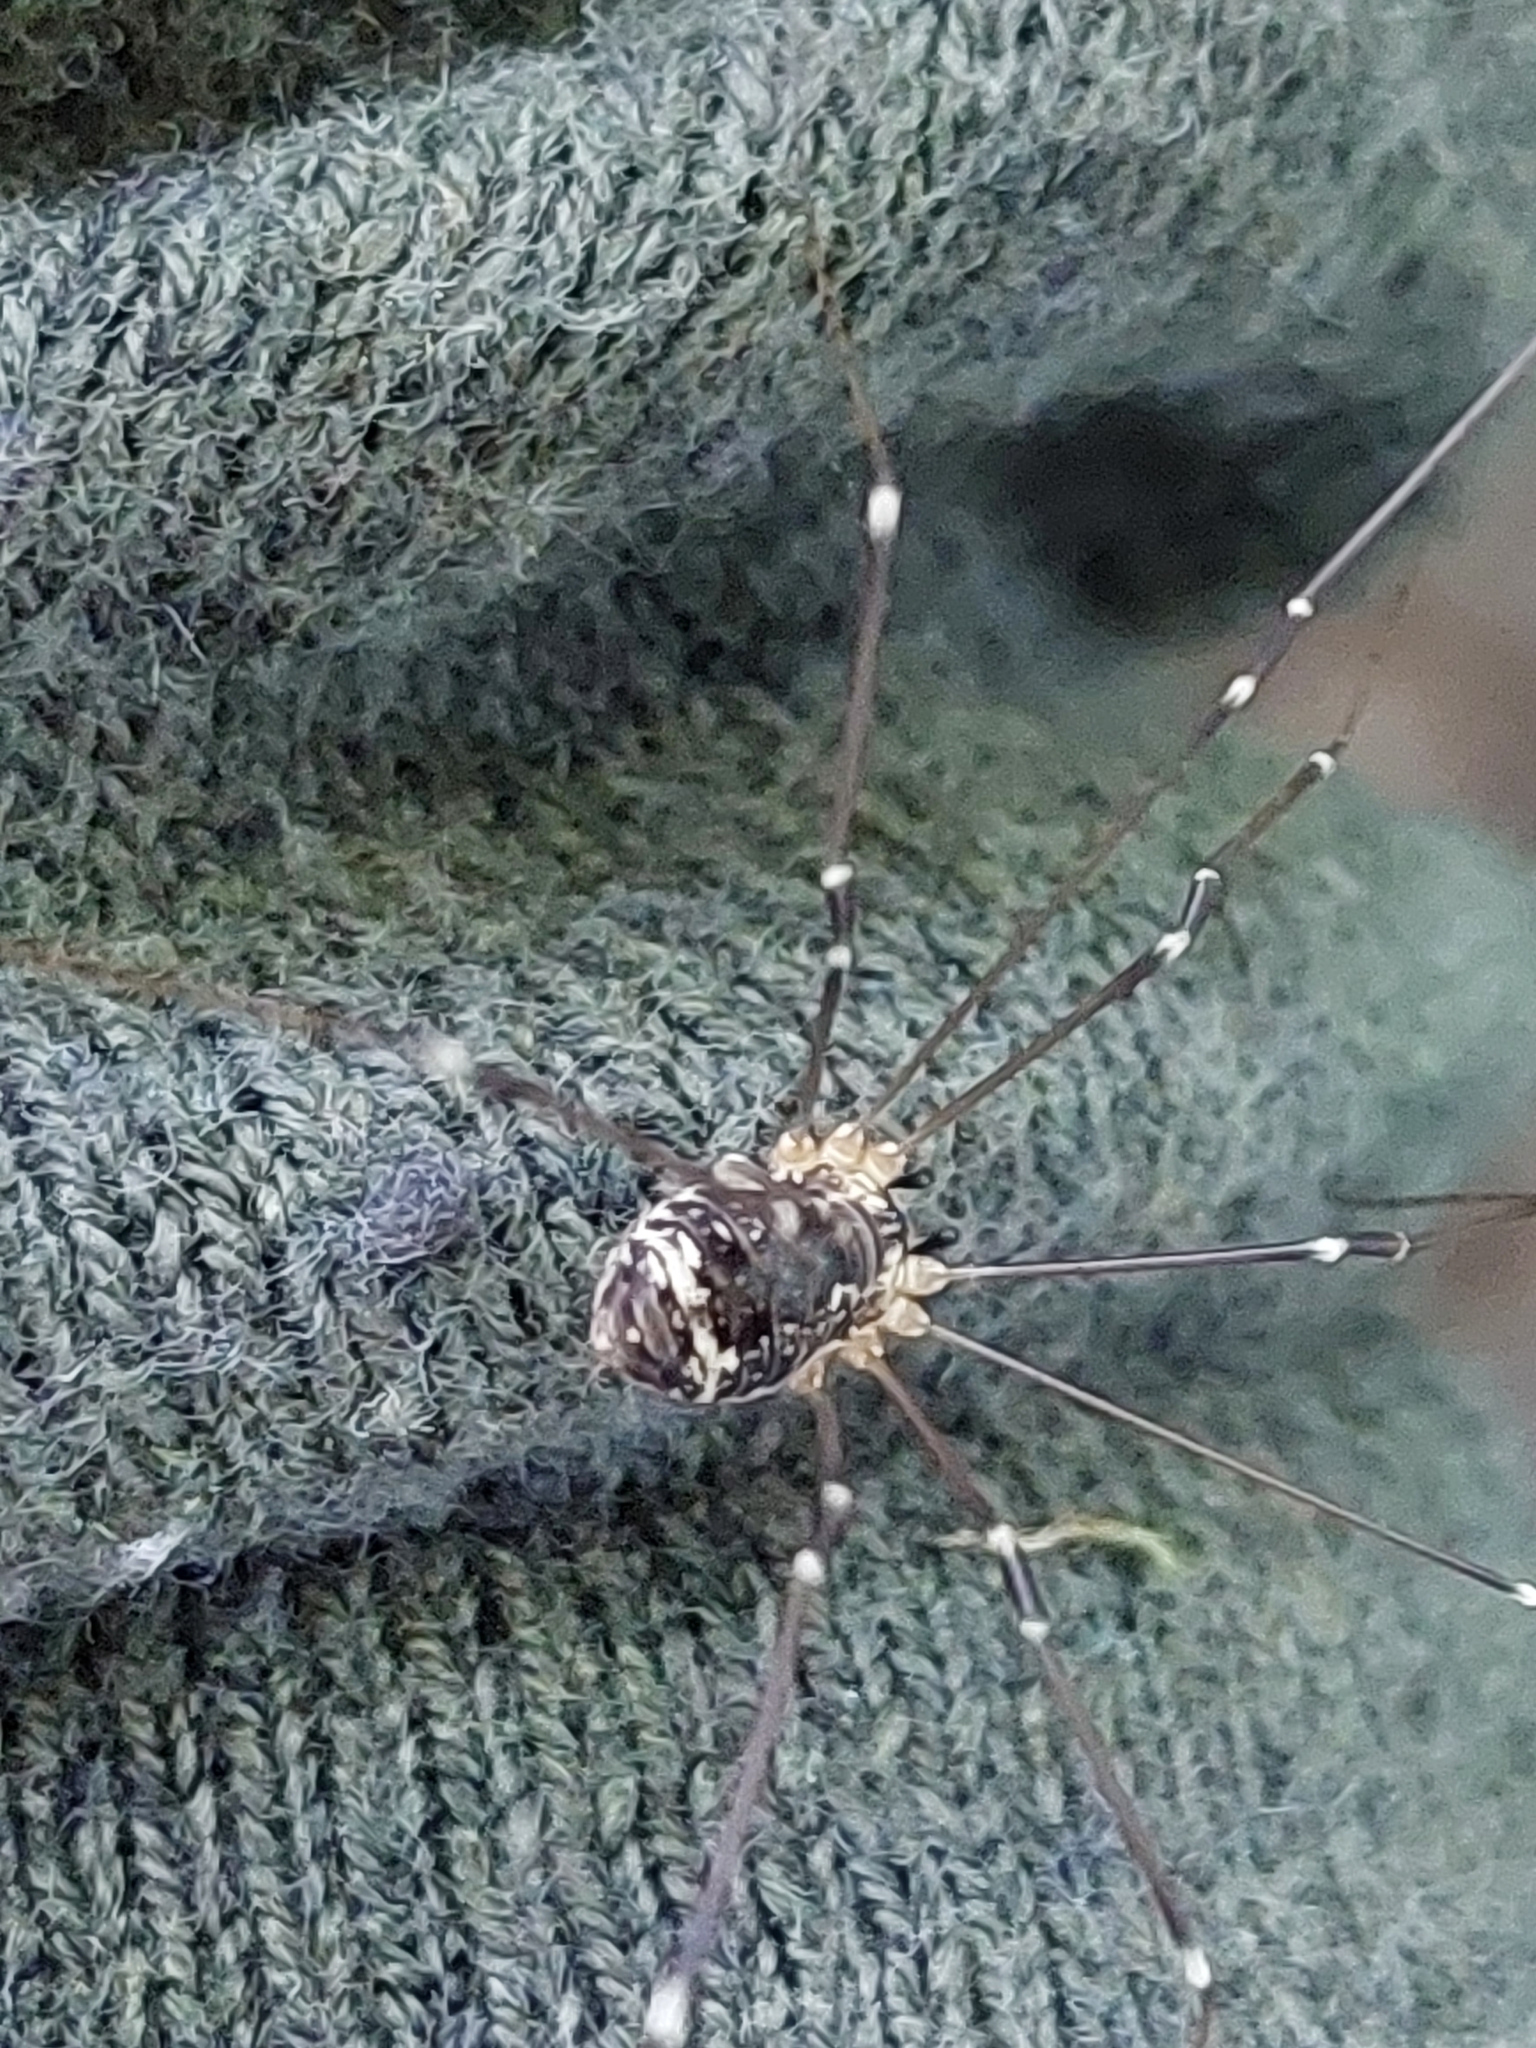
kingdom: Animalia
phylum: Arthropoda
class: Arachnida
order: Opiliones
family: Sclerosomatidae
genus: Leiobunum
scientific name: Leiobunum gracile
